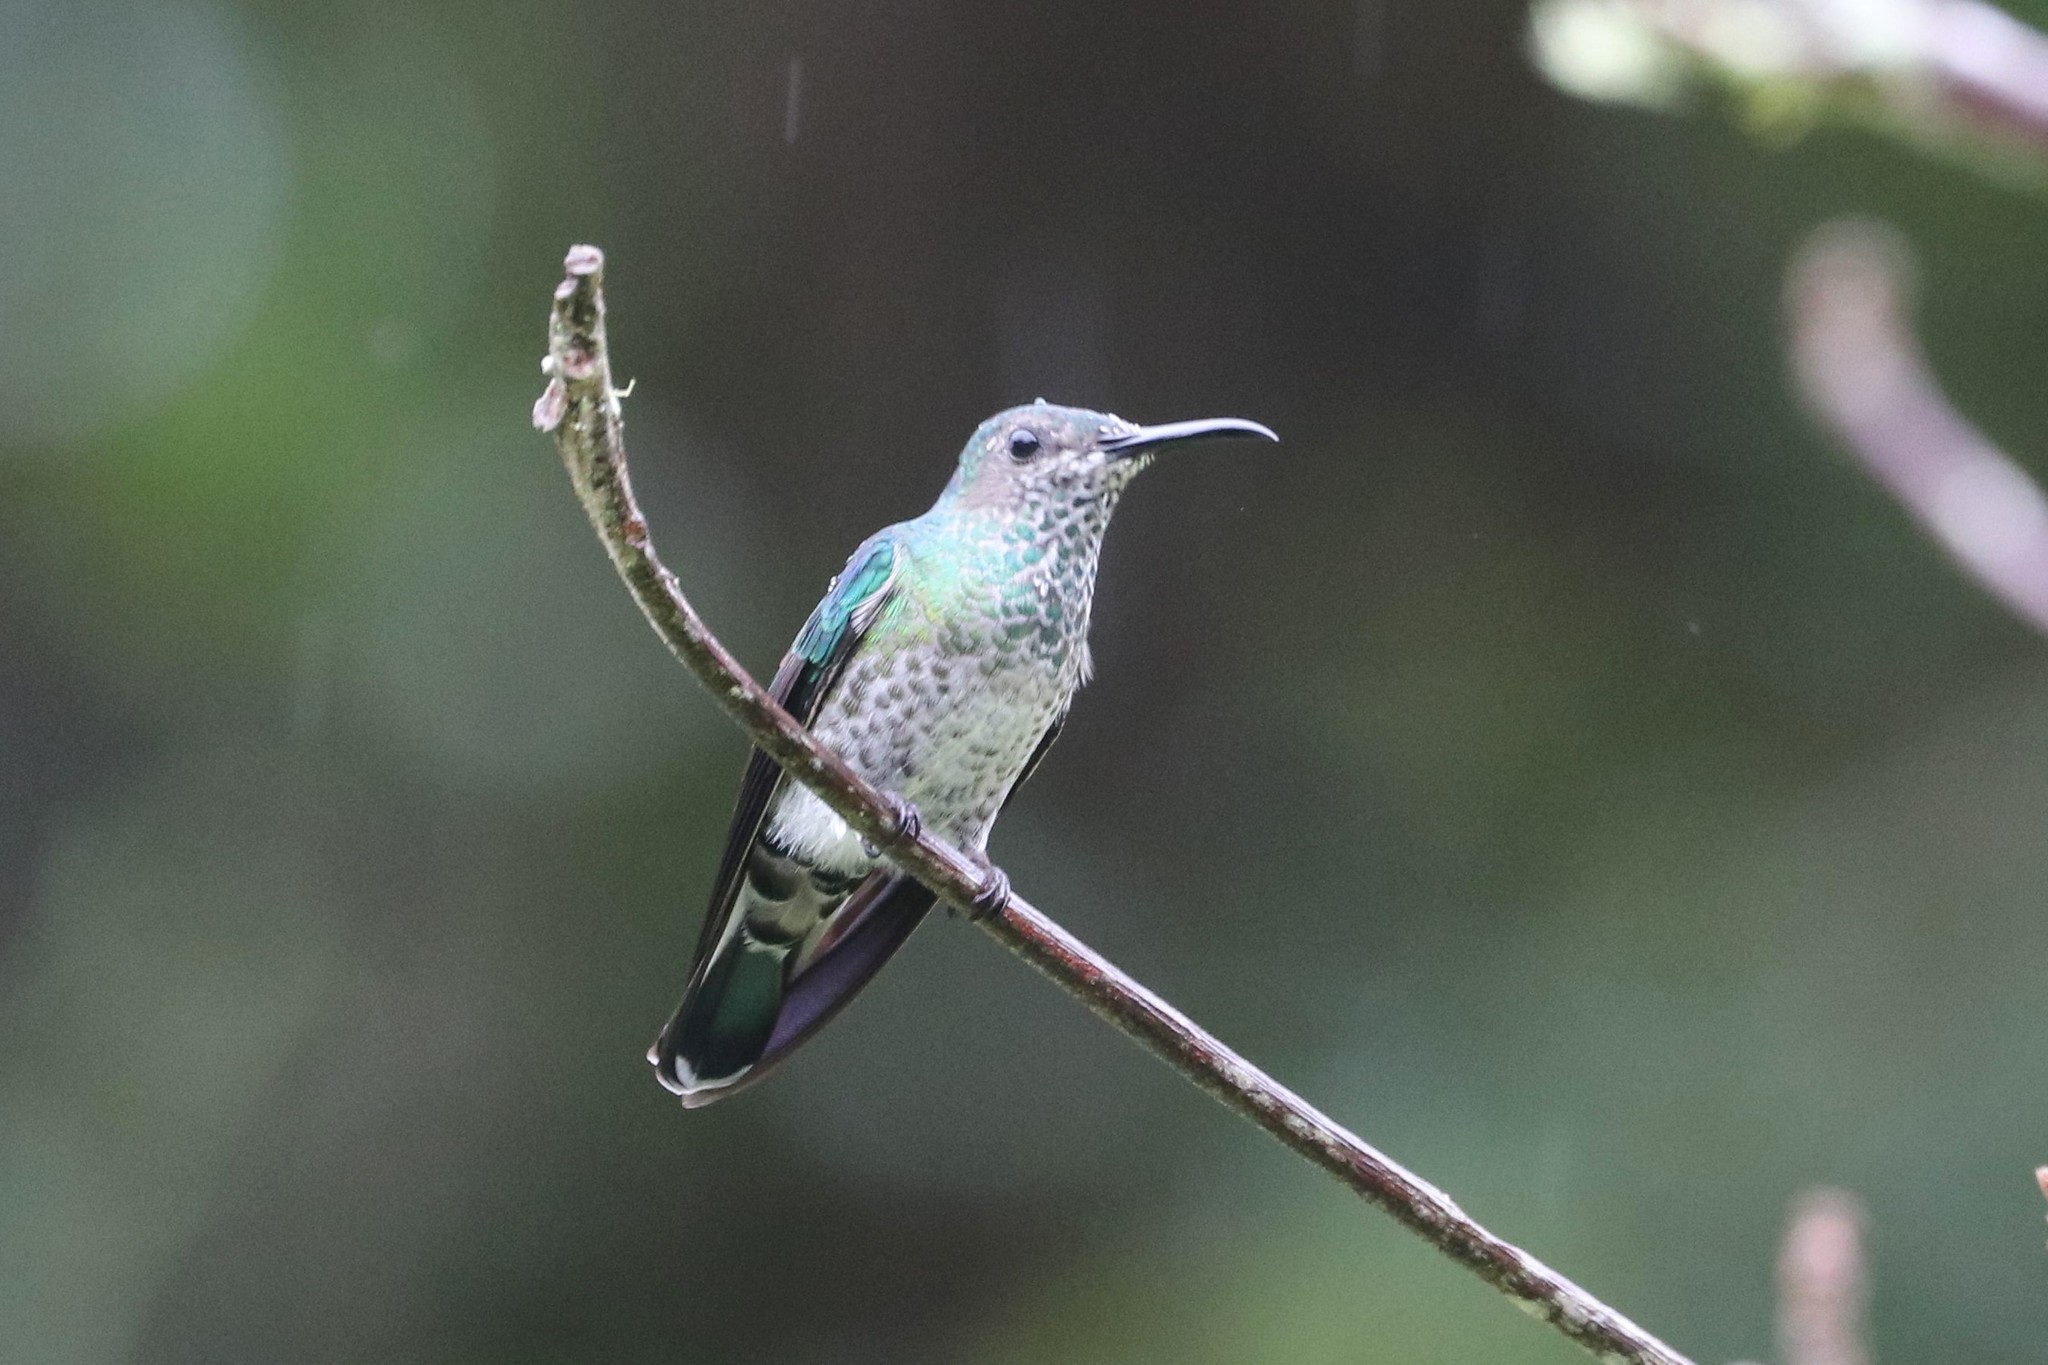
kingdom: Animalia
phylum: Chordata
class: Aves
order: Apodiformes
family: Trochilidae
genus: Florisuga
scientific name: Florisuga mellivora
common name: White-necked jacobin
